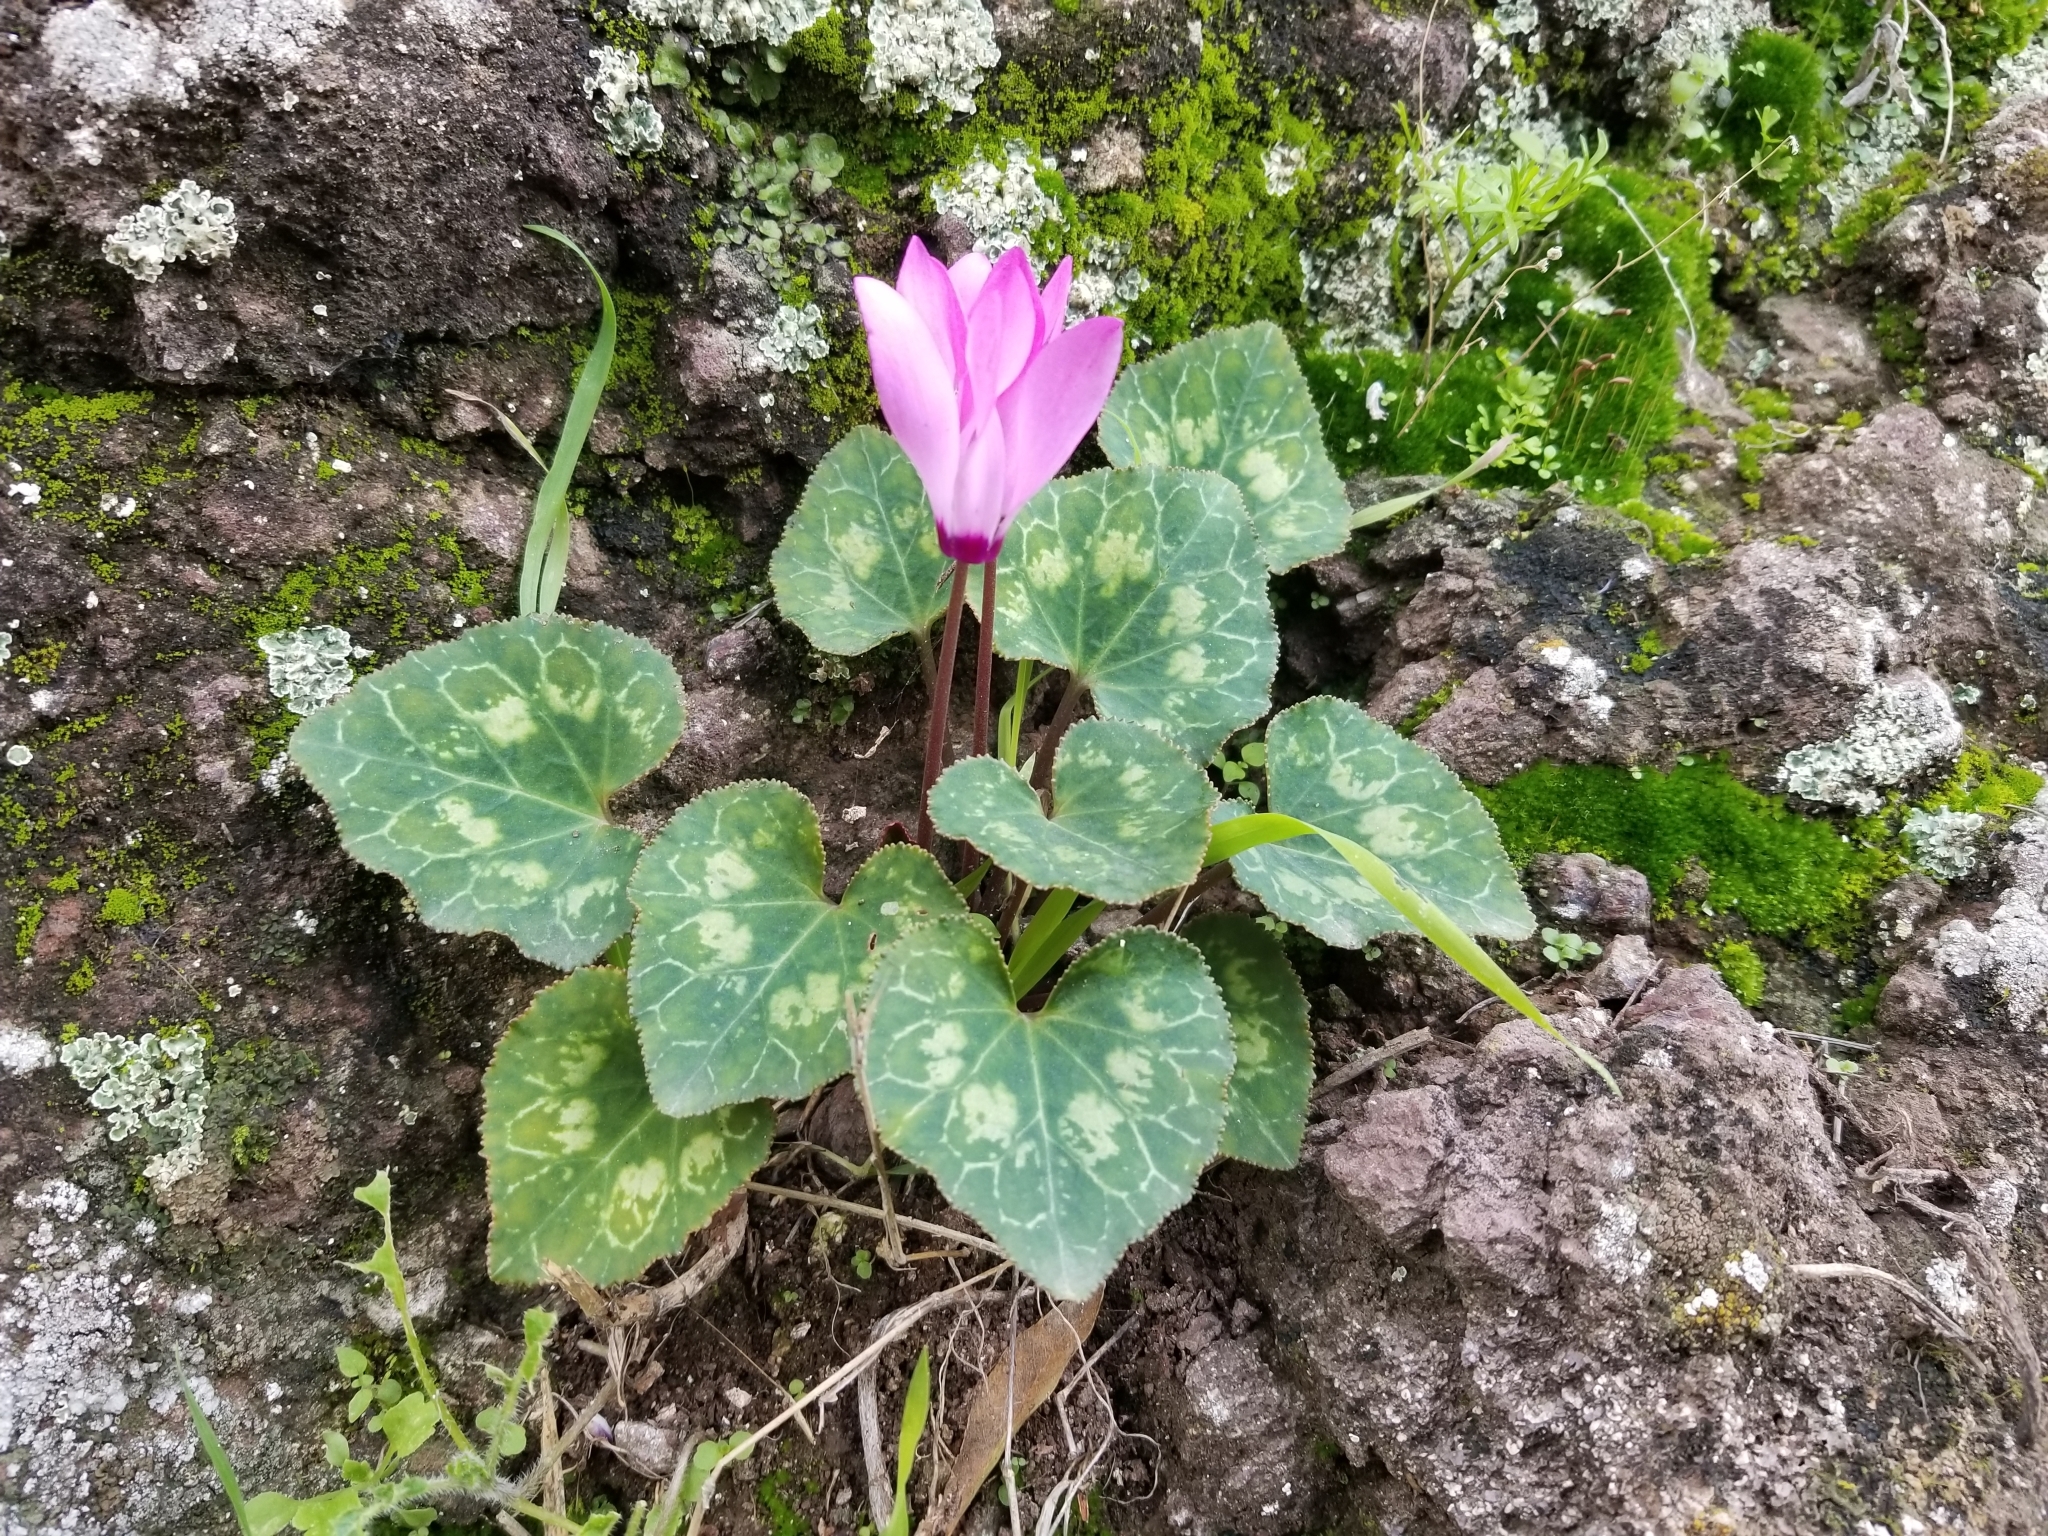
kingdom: Plantae
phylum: Tracheophyta
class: Magnoliopsida
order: Ericales
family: Primulaceae
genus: Cyclamen
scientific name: Cyclamen persicum
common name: Florist's cyclamen
